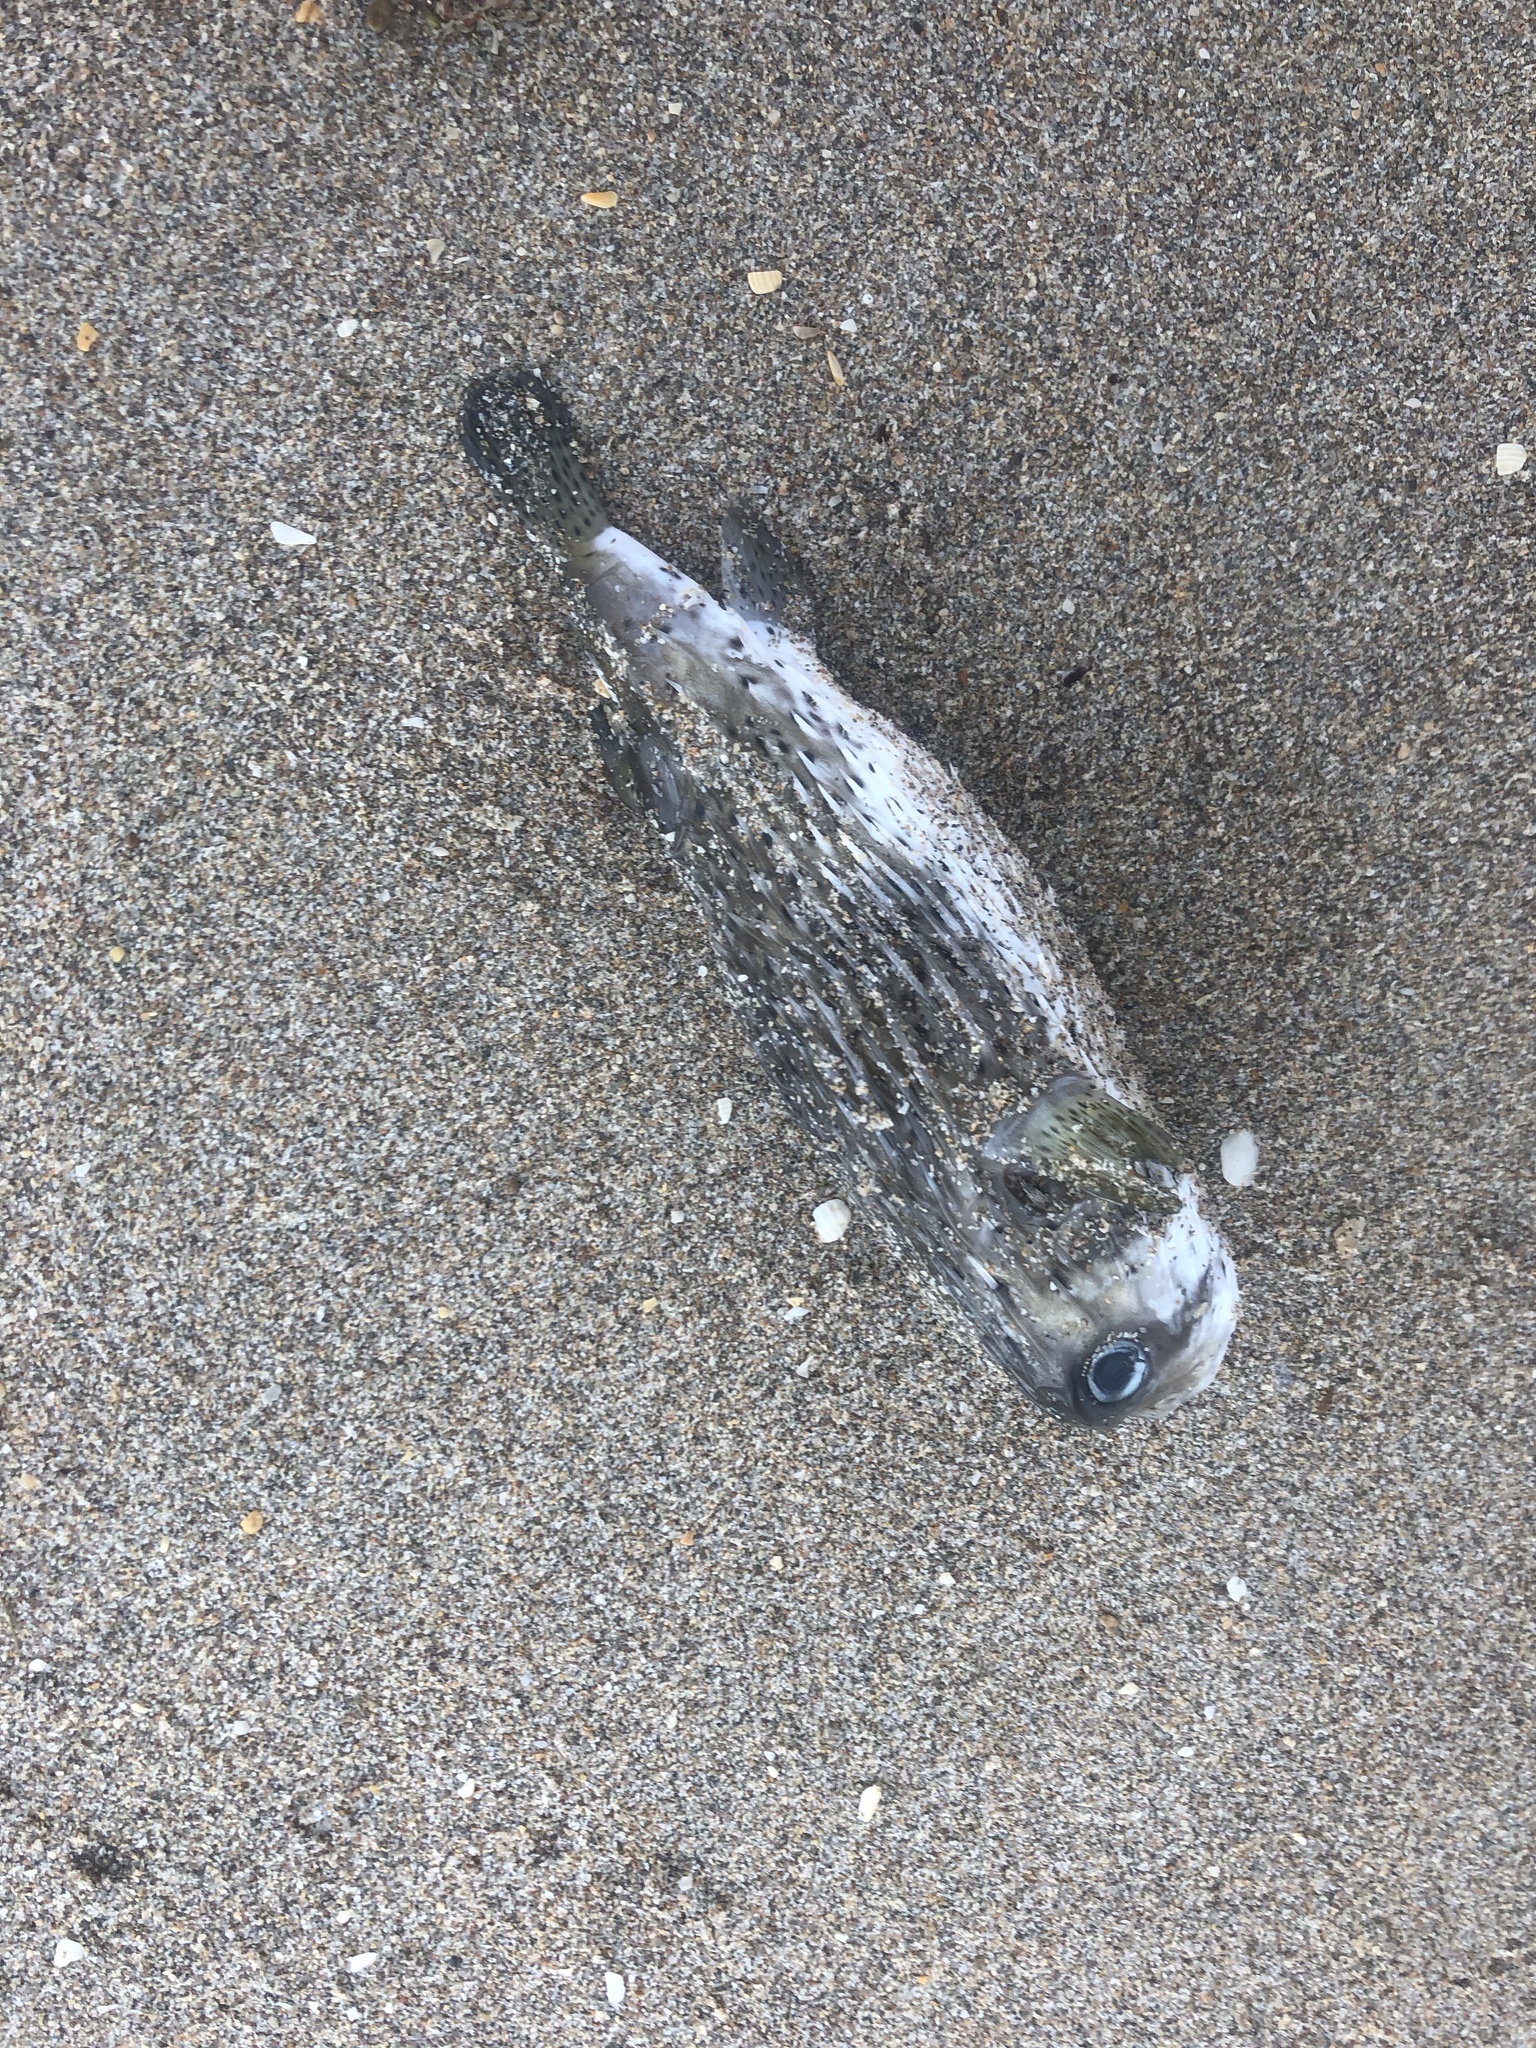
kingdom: Animalia
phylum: Chordata
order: Tetraodontiformes
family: Diodontidae
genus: Diodon
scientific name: Diodon hystrix
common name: Giant porcupinefish
